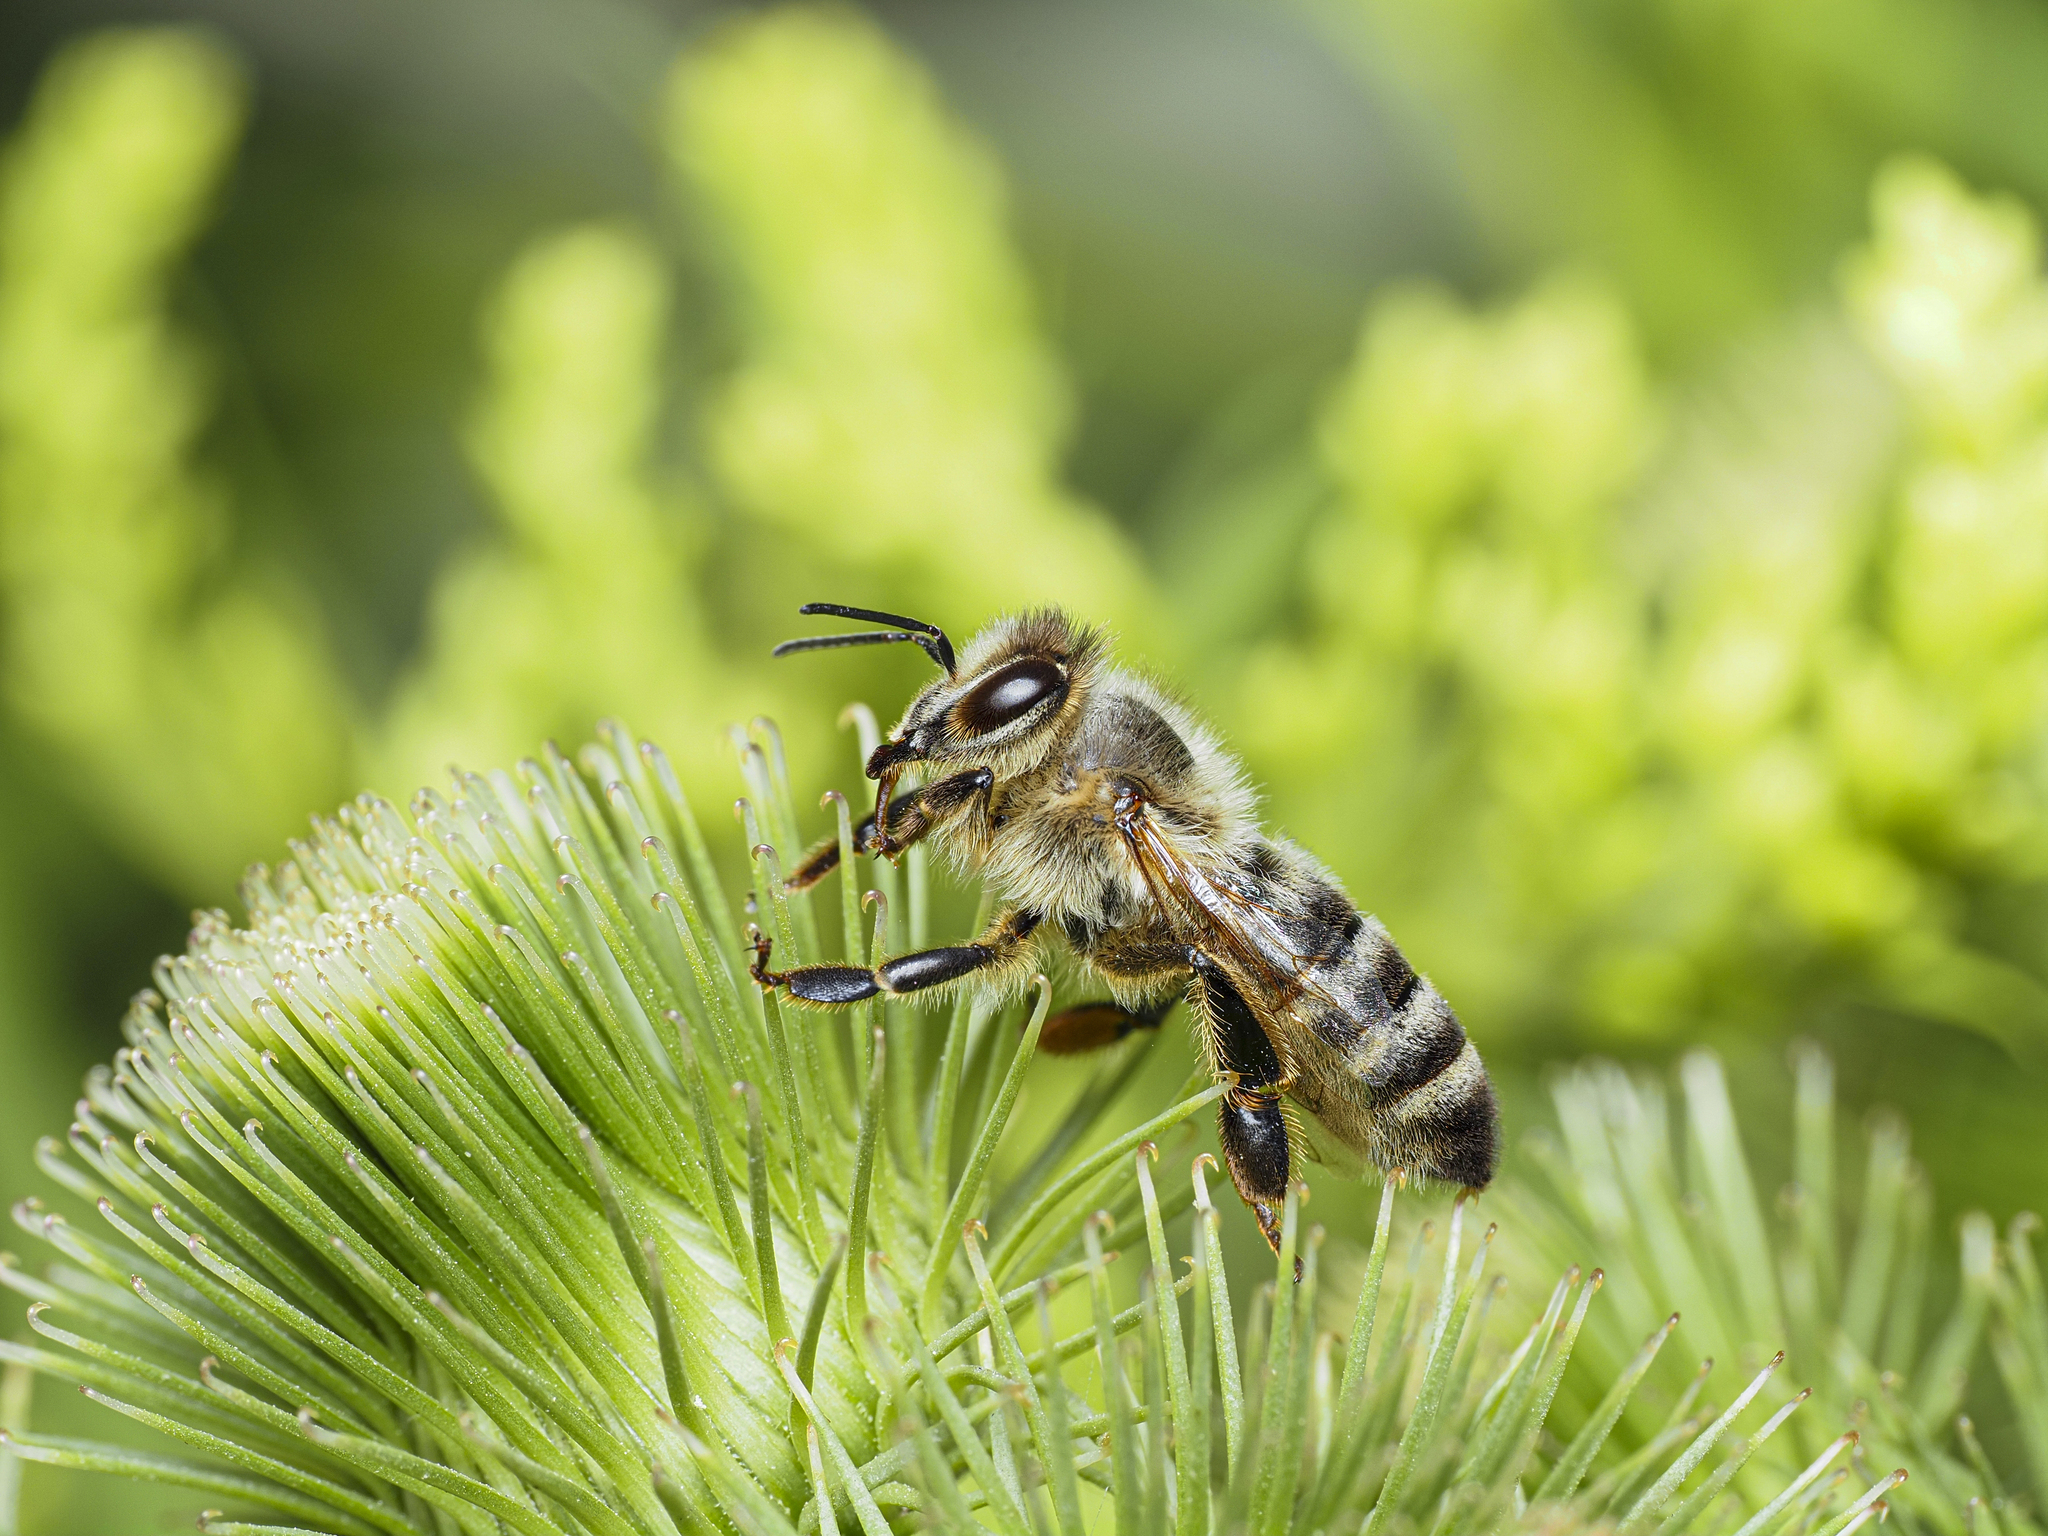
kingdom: Animalia
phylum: Arthropoda
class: Insecta
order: Hymenoptera
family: Apidae
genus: Apis
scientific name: Apis mellifera
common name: Honey bee
